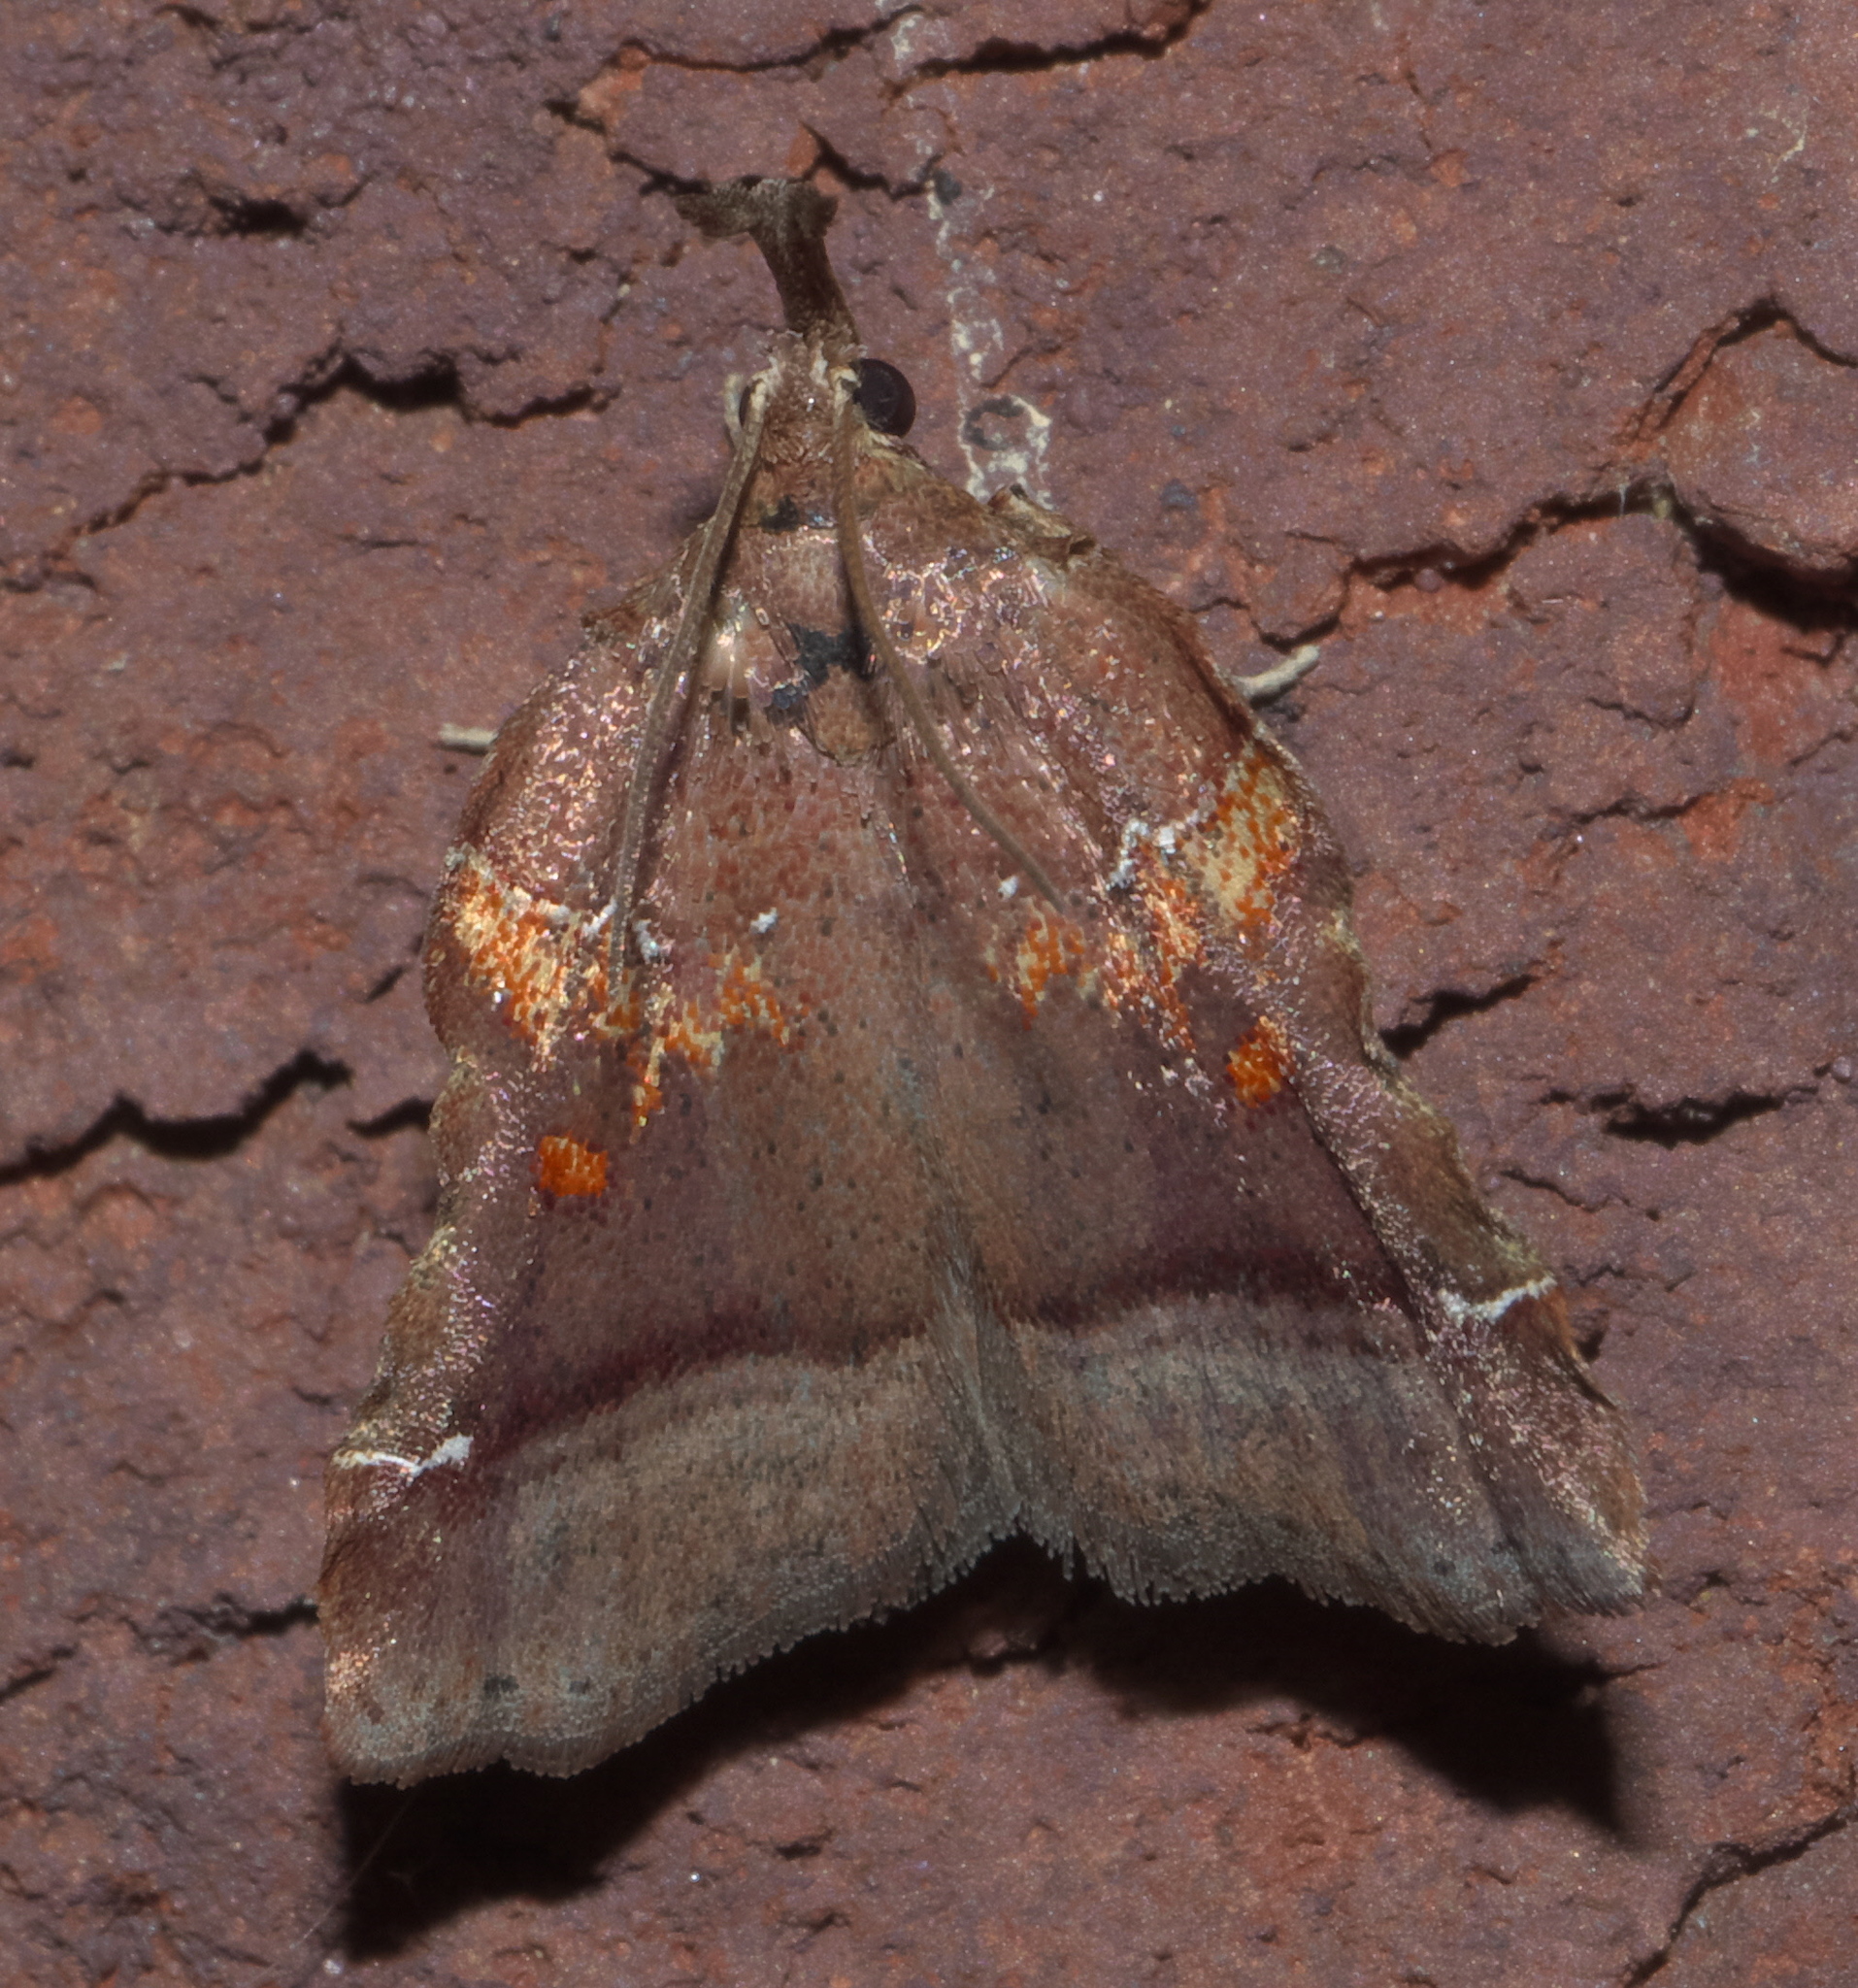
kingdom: Animalia
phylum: Arthropoda
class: Insecta
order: Lepidoptera
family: Pyralidae
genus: Clydonopteron
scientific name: Clydonopteron sacculana
